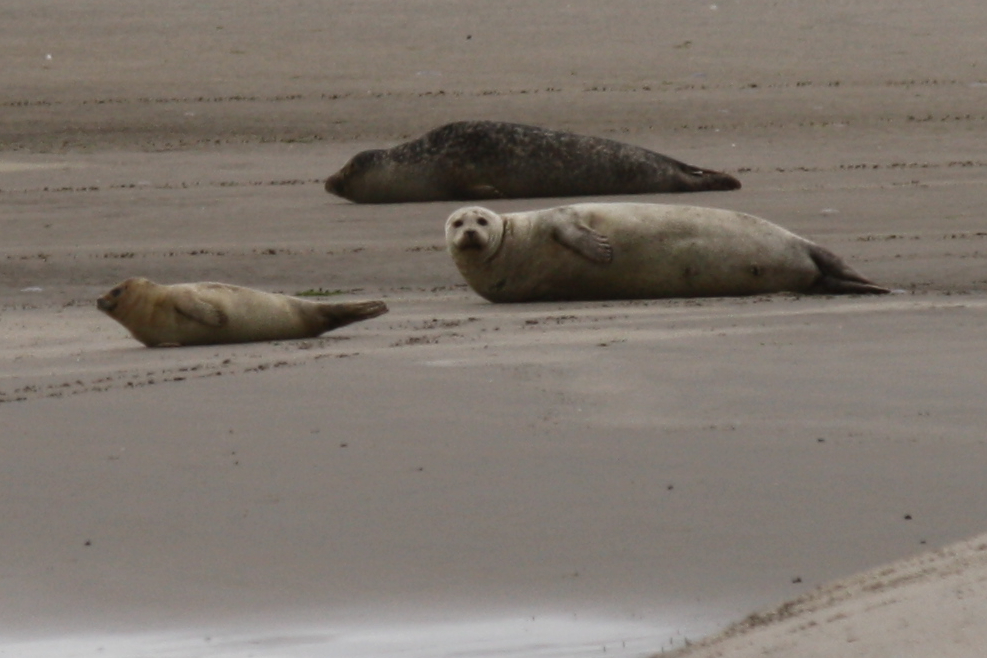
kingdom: Animalia
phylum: Chordata
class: Mammalia
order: Carnivora
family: Phocidae
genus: Phoca
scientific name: Phoca vitulina
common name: Harbor seal
